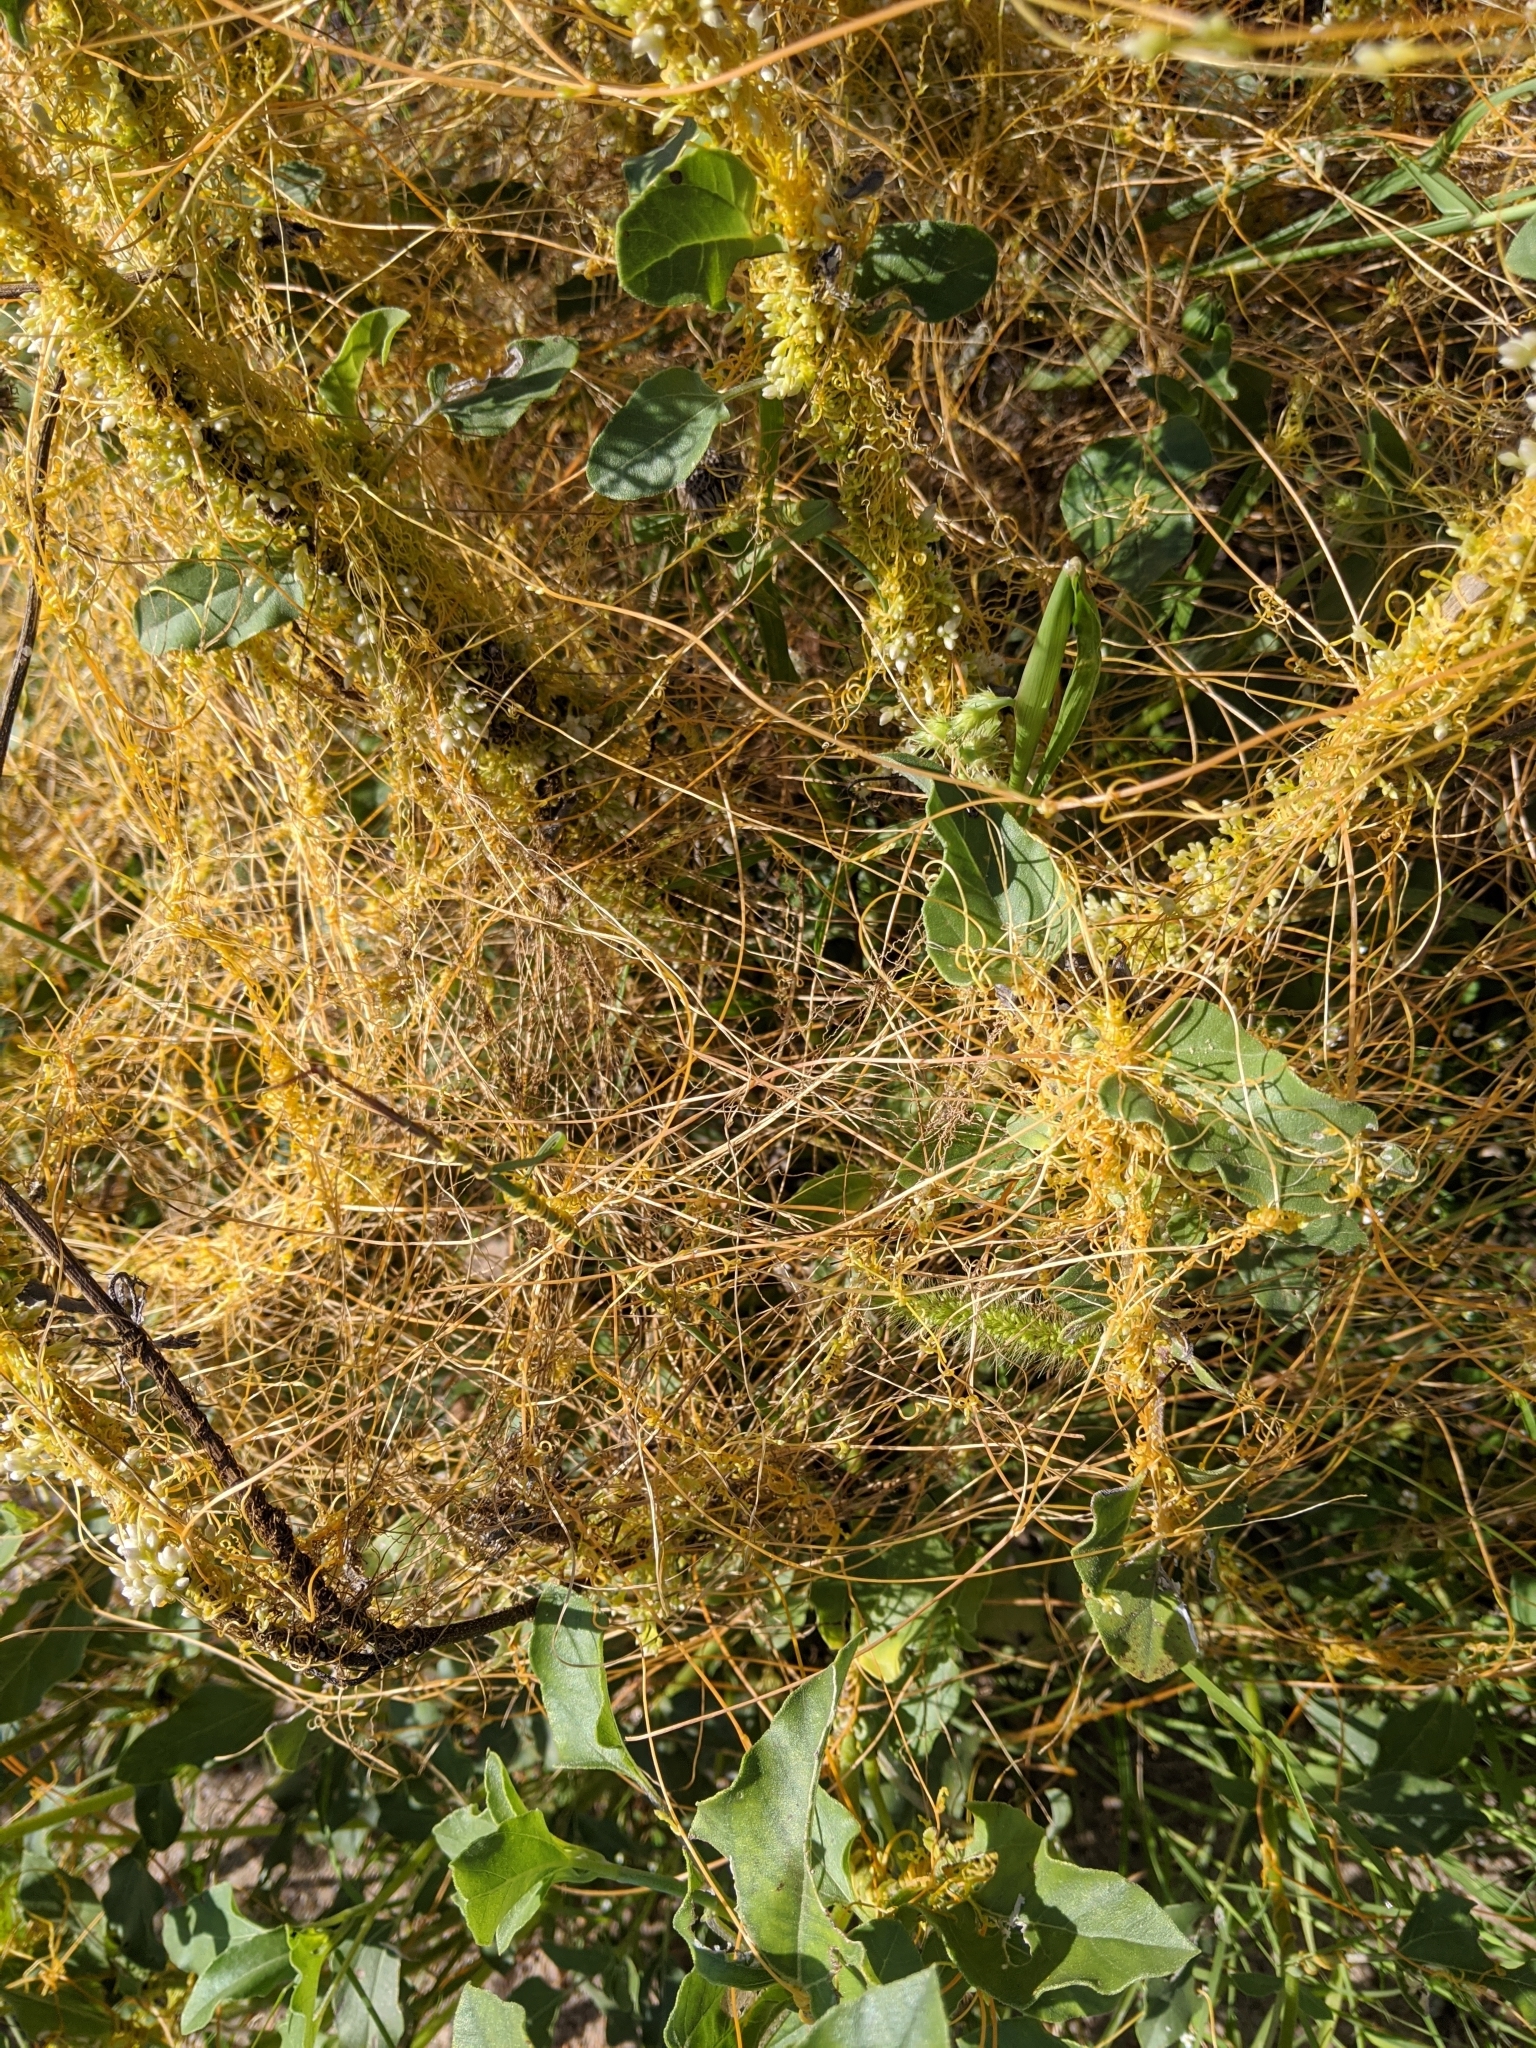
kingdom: Plantae
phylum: Tracheophyta
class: Magnoliopsida
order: Solanales
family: Convolvulaceae
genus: Cuscuta
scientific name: Cuscuta
